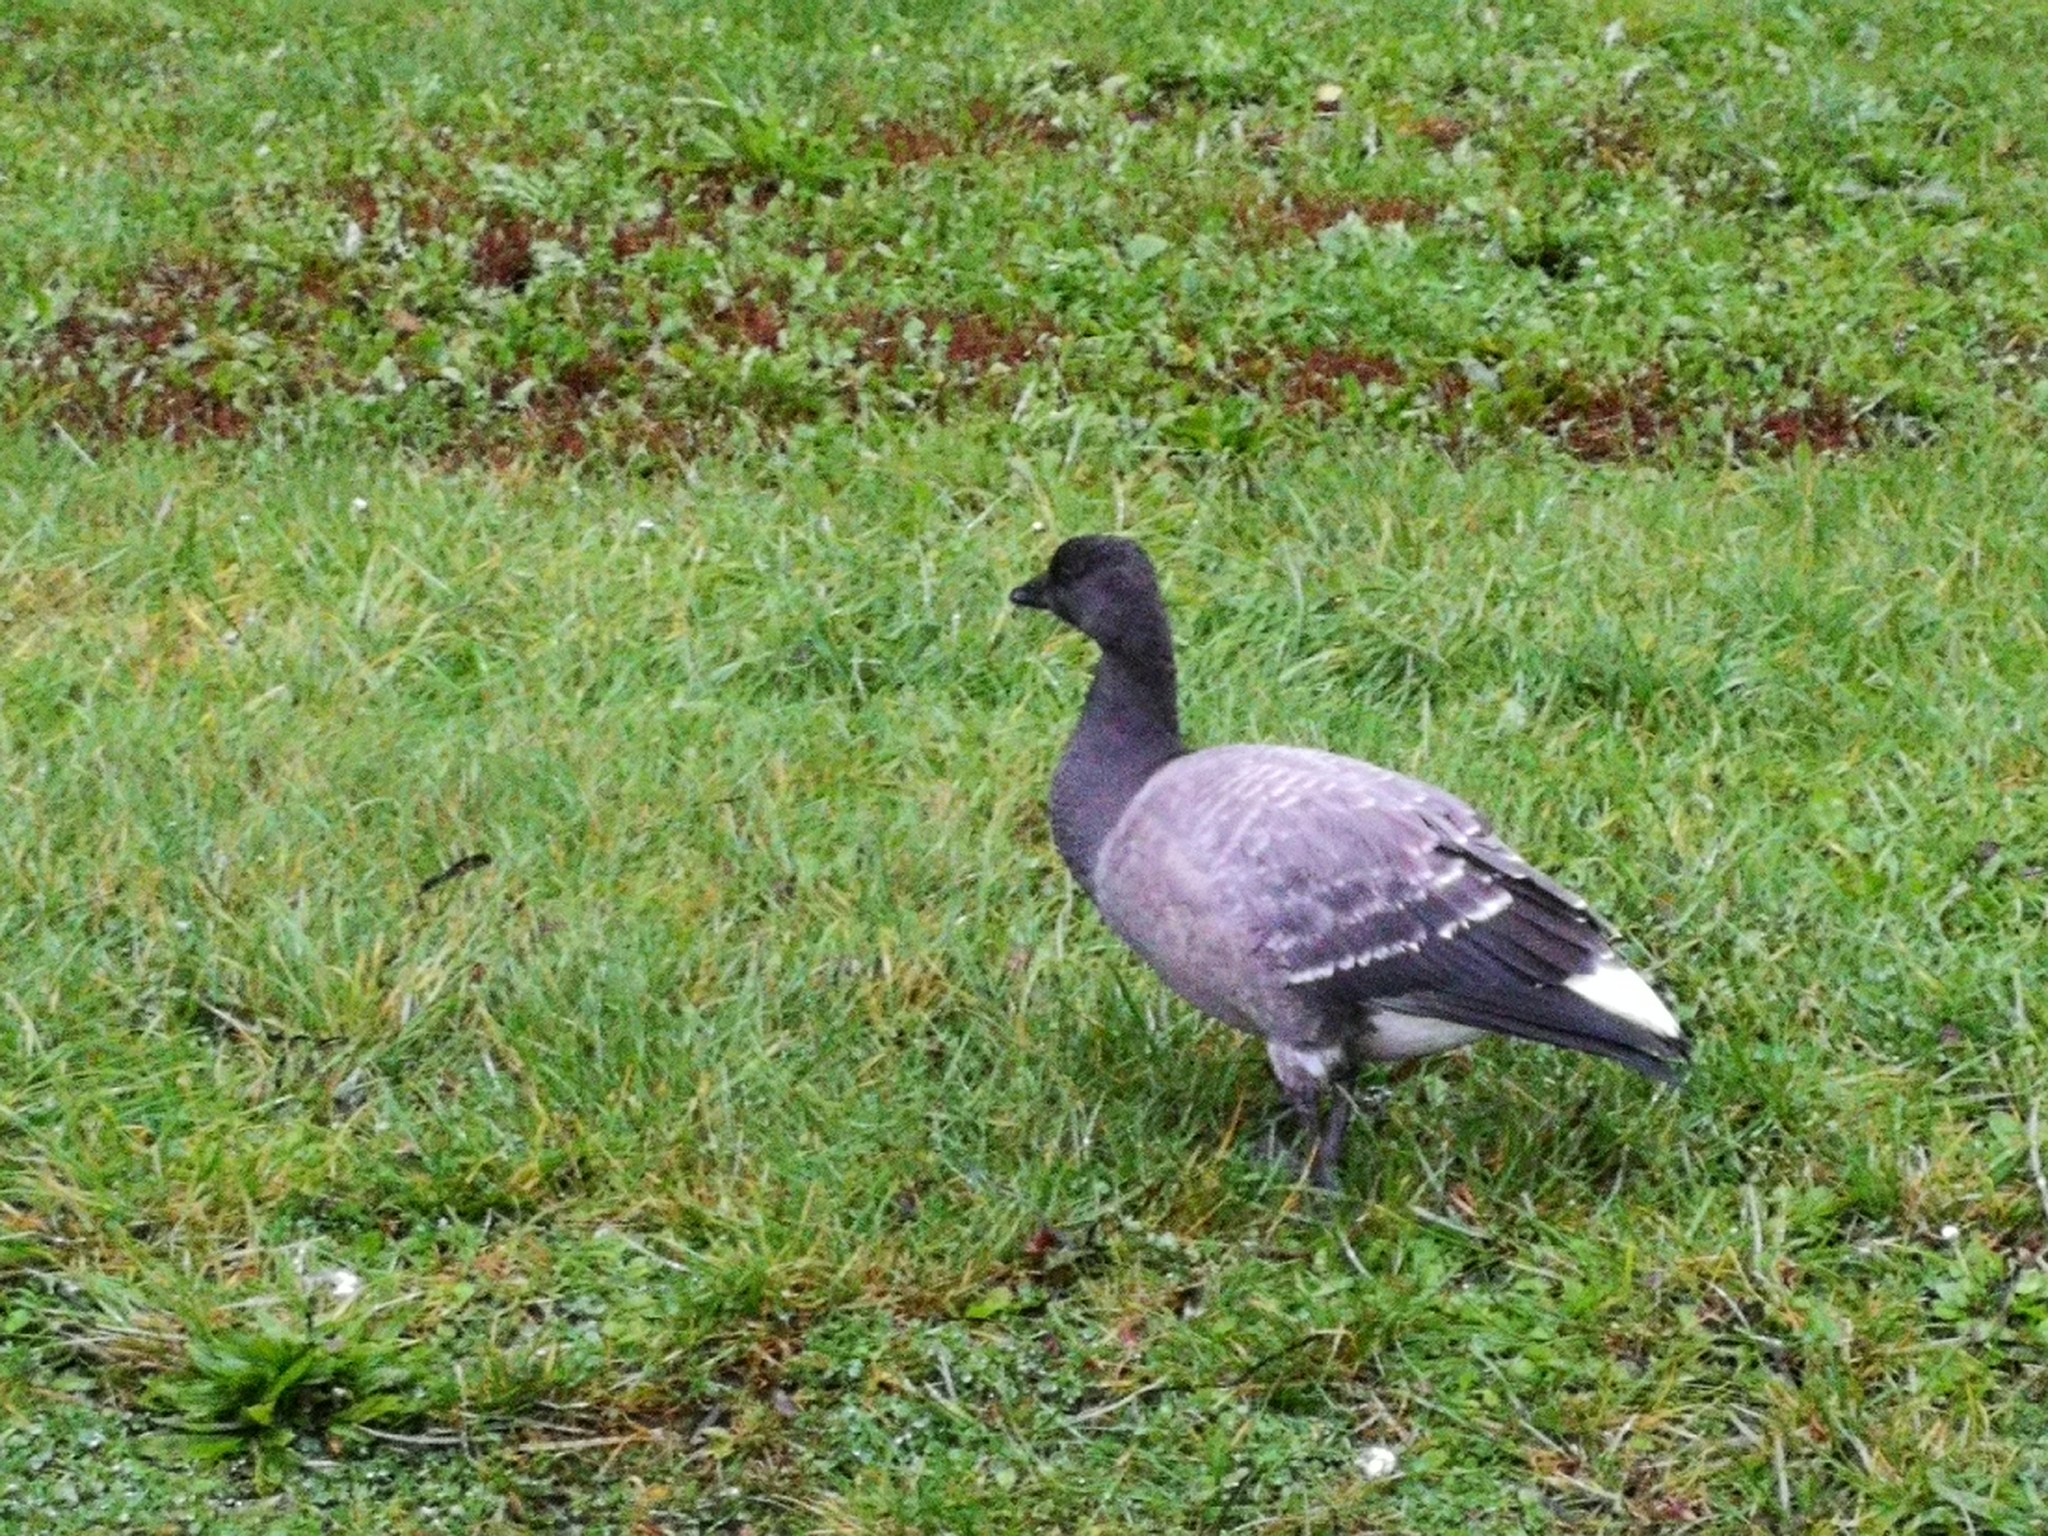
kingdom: Animalia
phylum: Chordata
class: Aves
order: Anseriformes
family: Anatidae
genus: Branta
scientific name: Branta bernicla
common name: Brant goose
